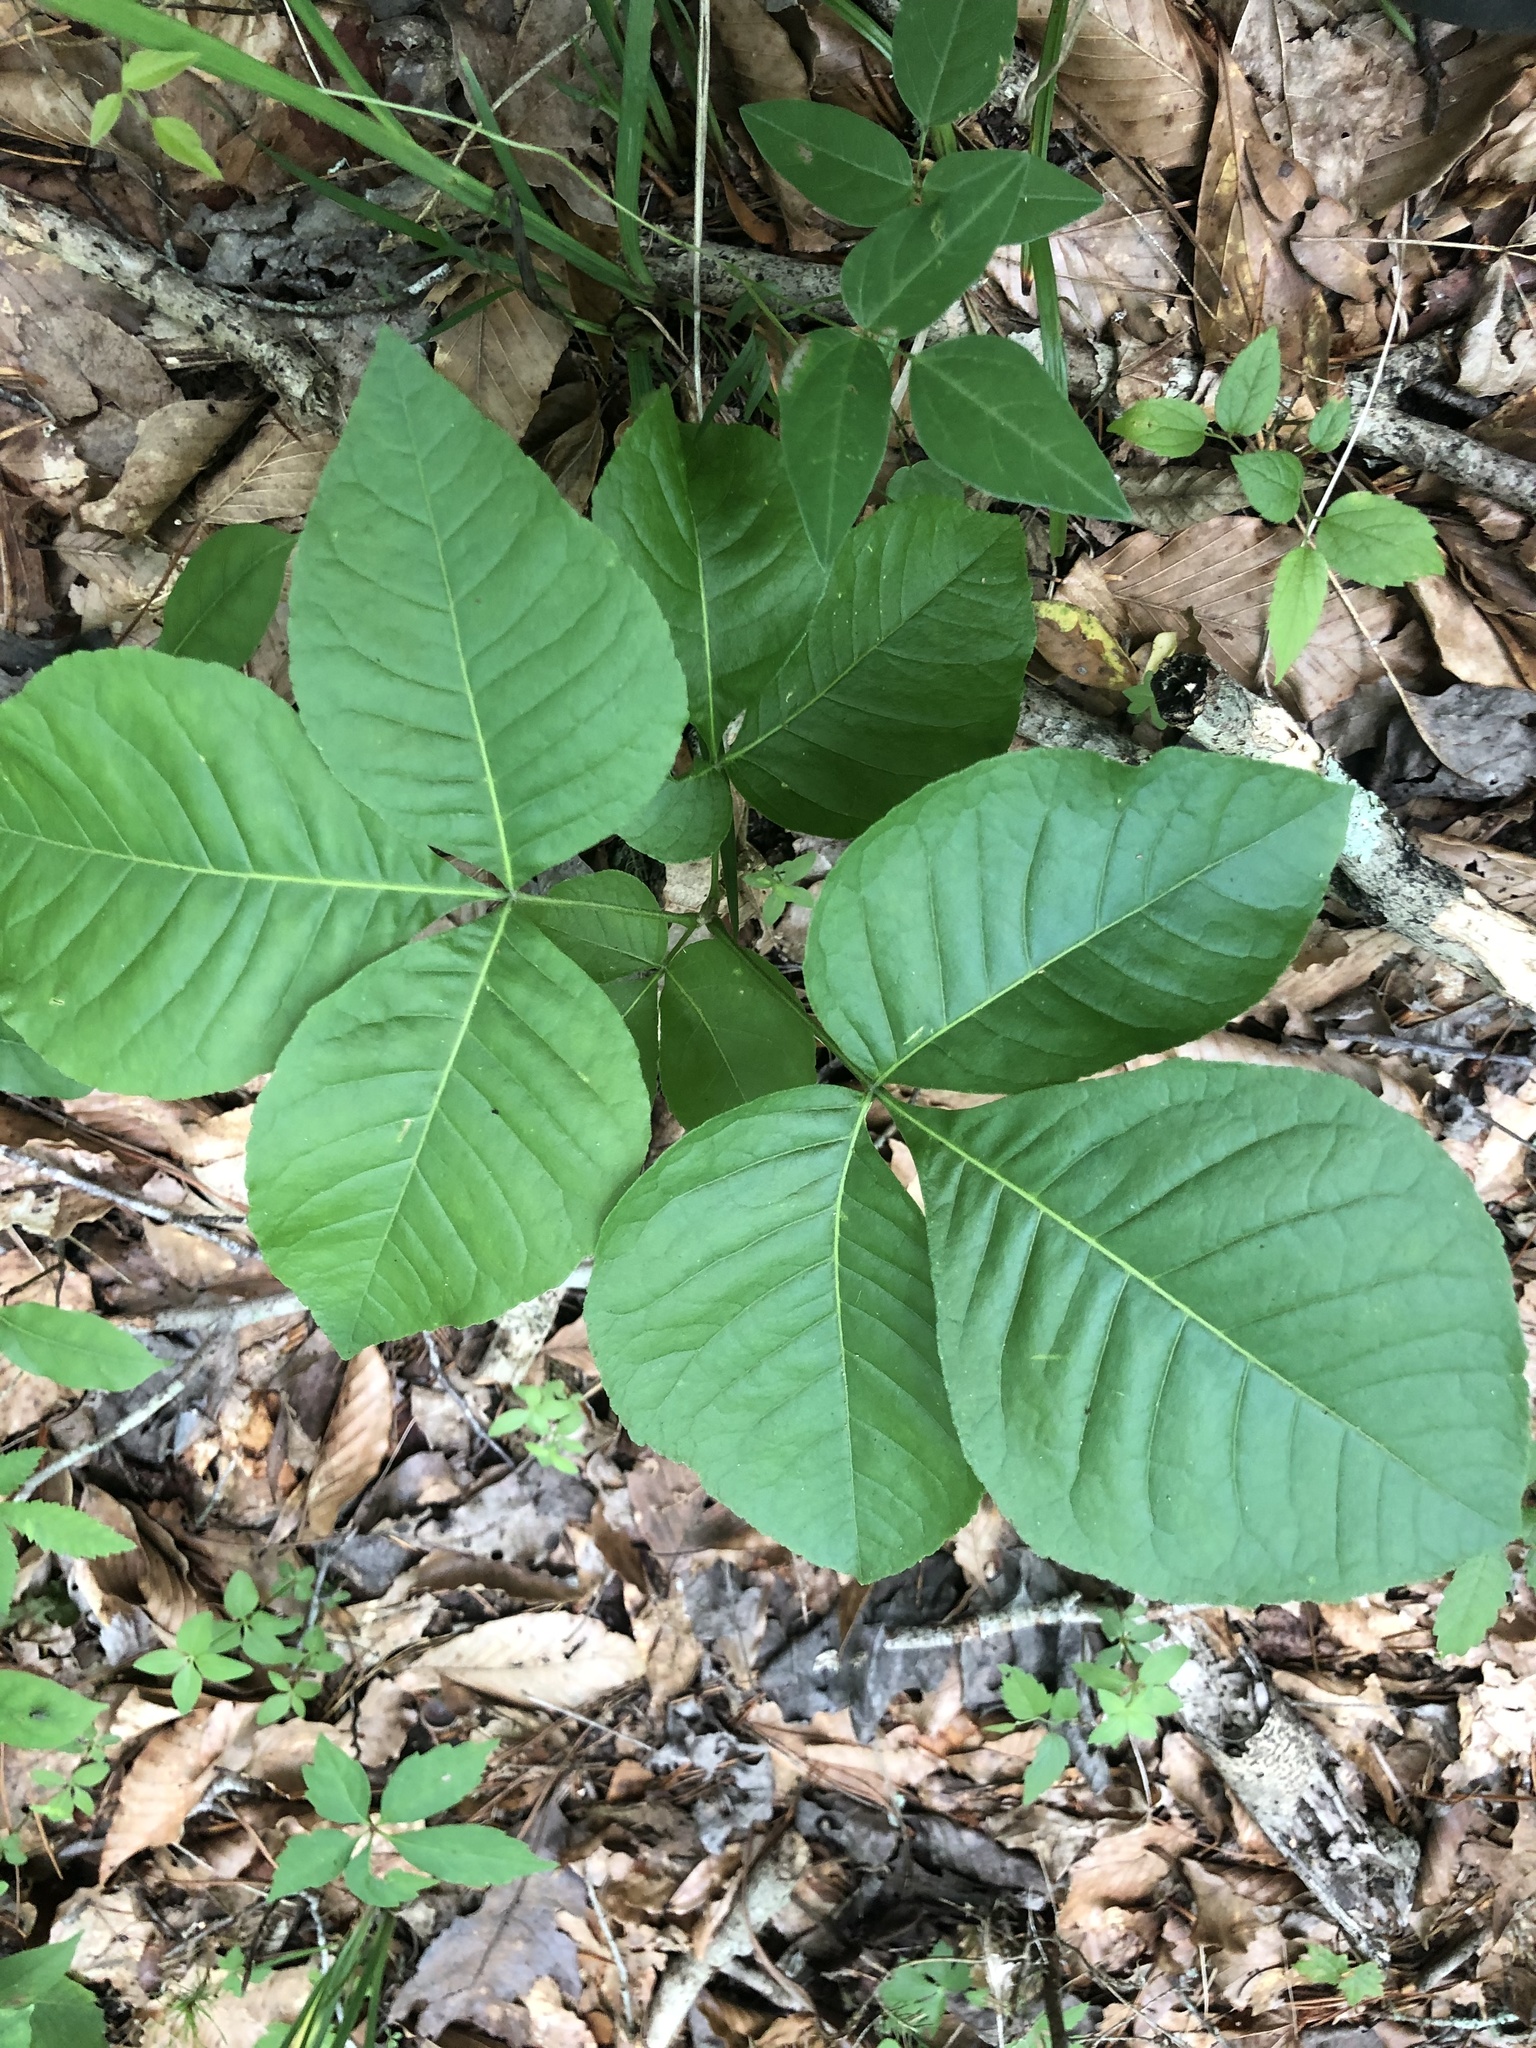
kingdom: Plantae
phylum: Tracheophyta
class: Magnoliopsida
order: Sapindales
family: Rutaceae
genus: Ptelea
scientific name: Ptelea trifoliata
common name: Common hop-tree
